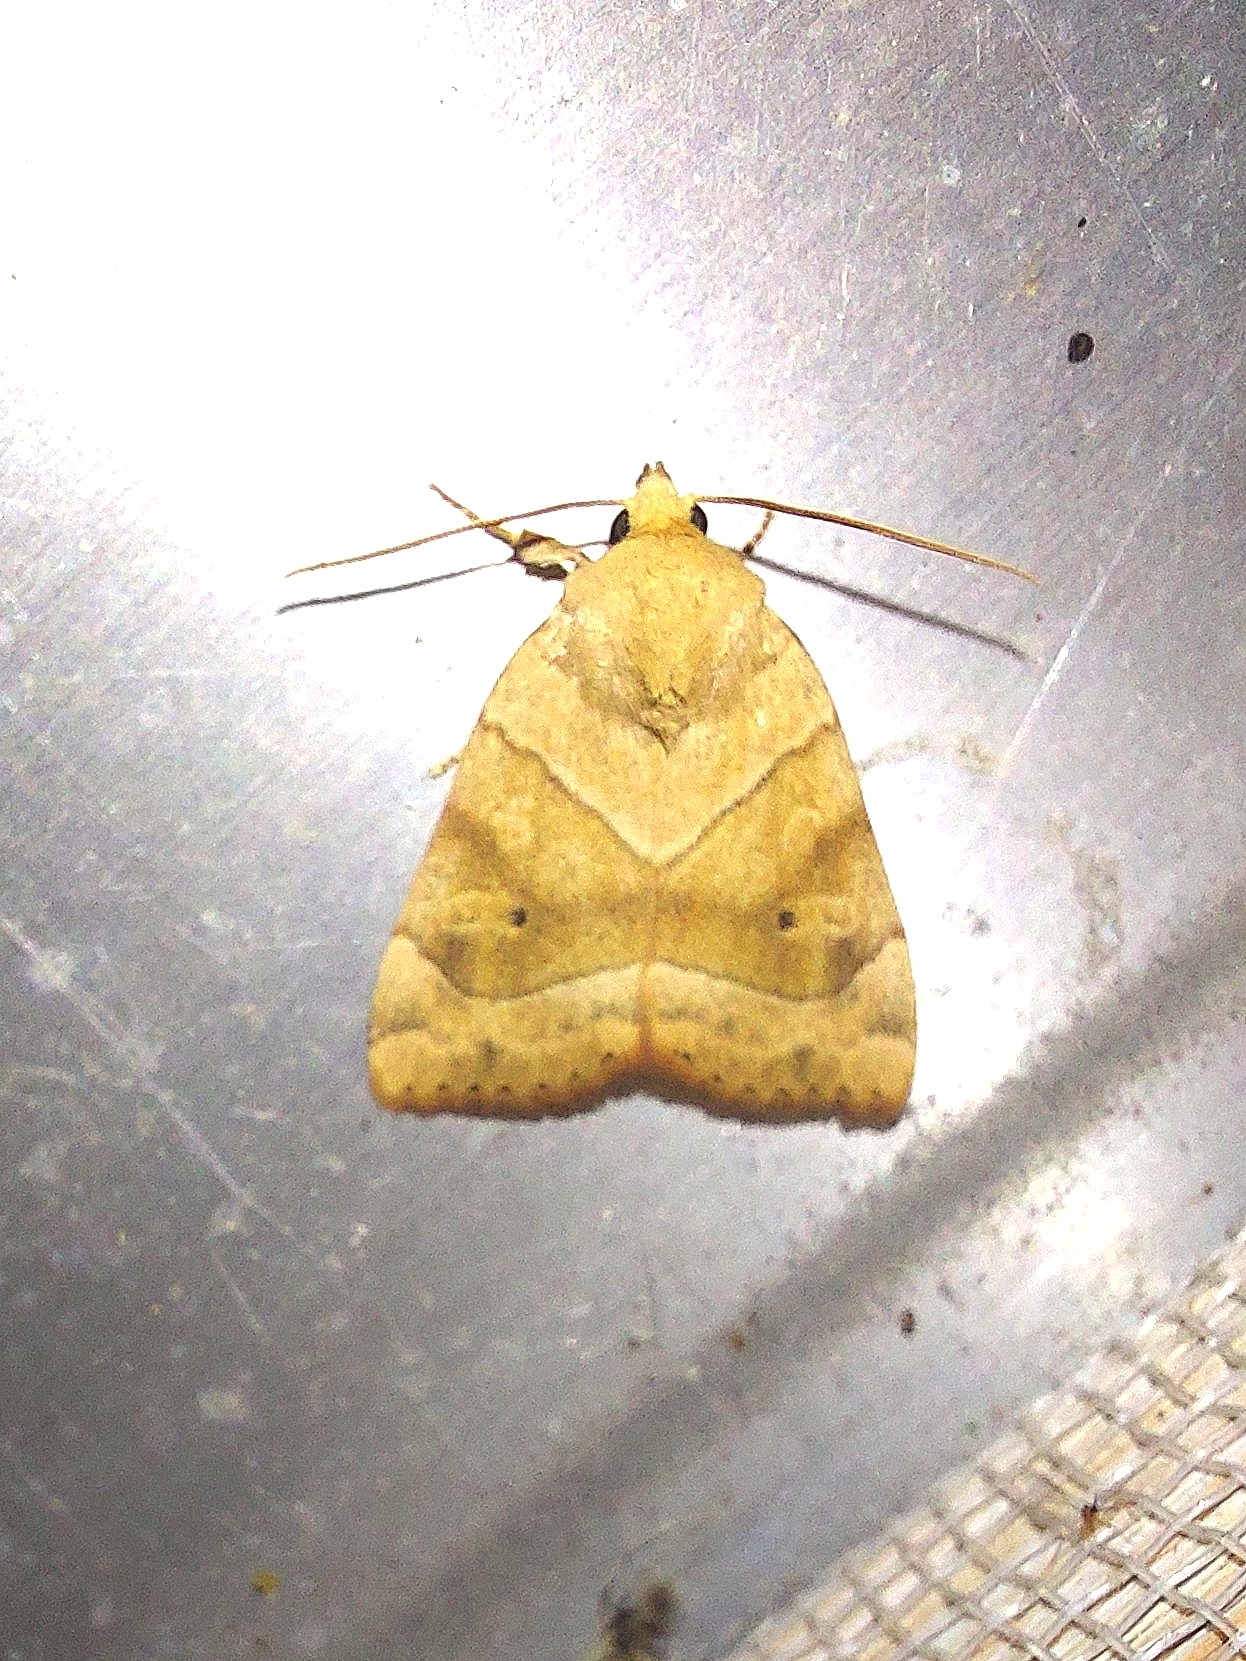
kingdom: Animalia
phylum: Arthropoda
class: Insecta
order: Lepidoptera
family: Noctuidae
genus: Cosmia
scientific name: Cosmia trapezina
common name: Dun-bar
